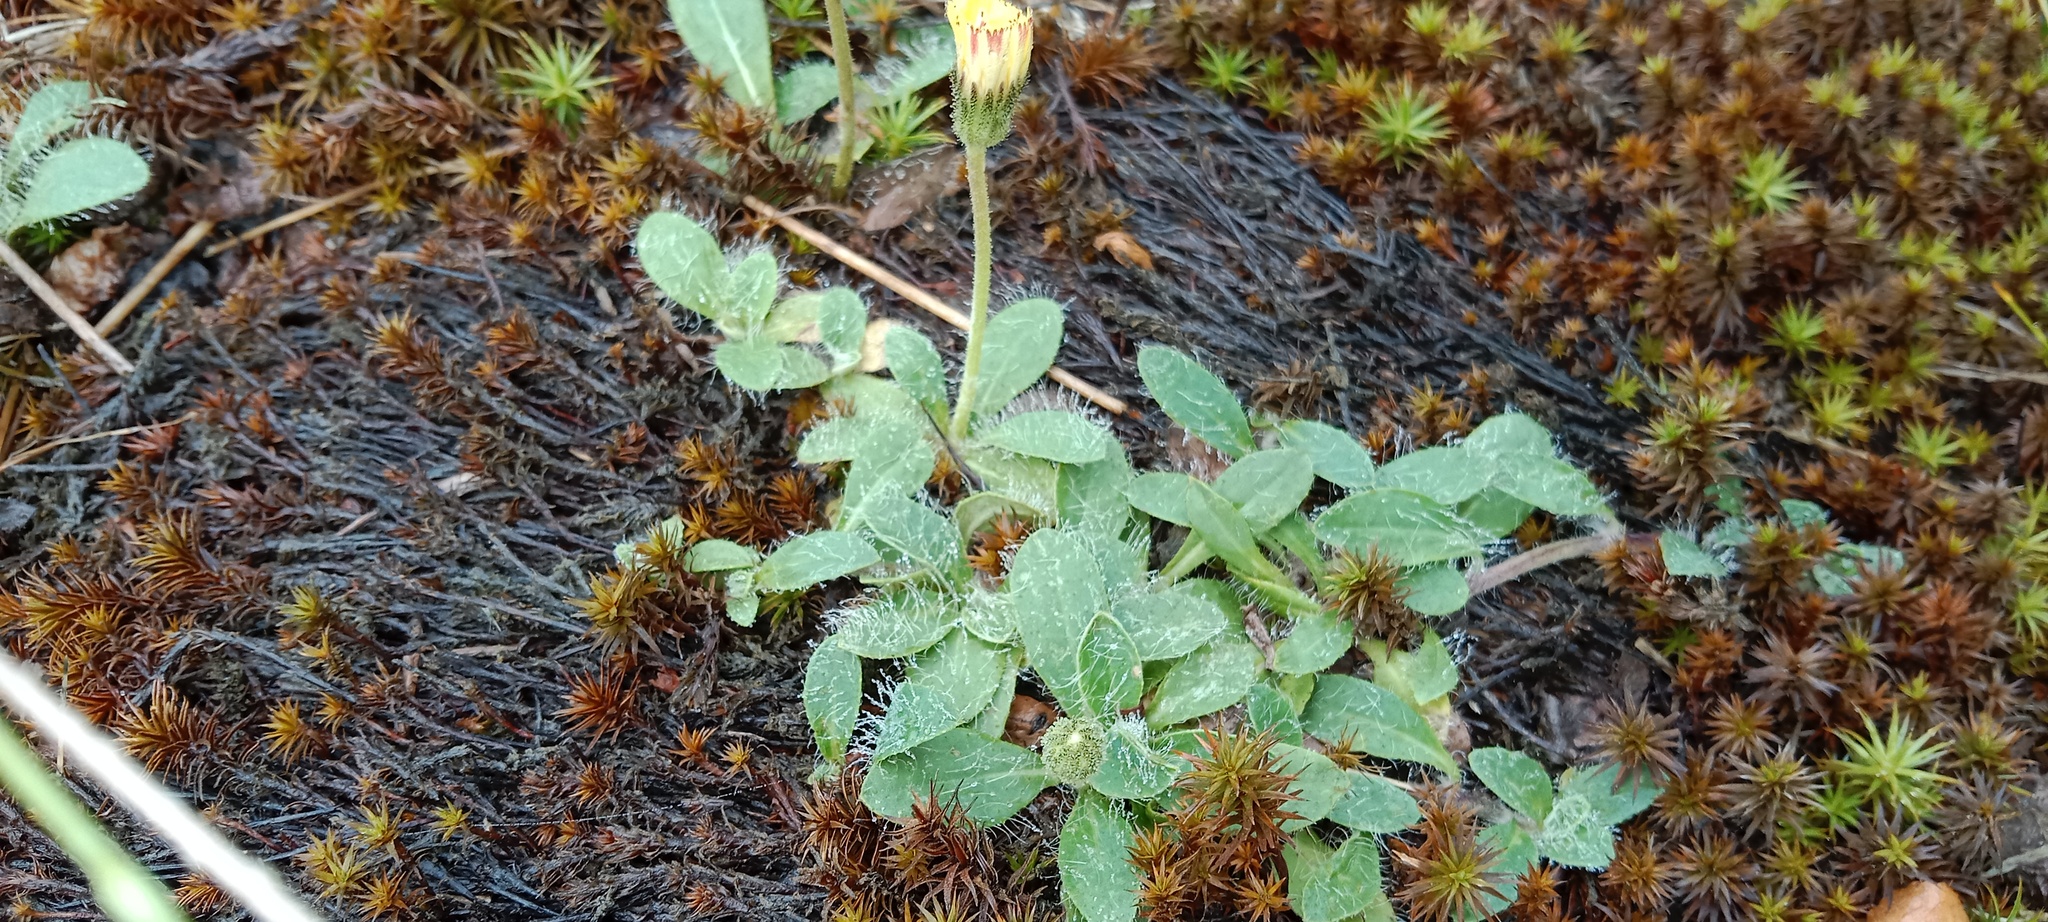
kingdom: Plantae
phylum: Tracheophyta
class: Magnoliopsida
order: Asterales
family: Asteraceae
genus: Pilosella
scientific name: Pilosella officinarum
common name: Mouse-ear hawkweed
